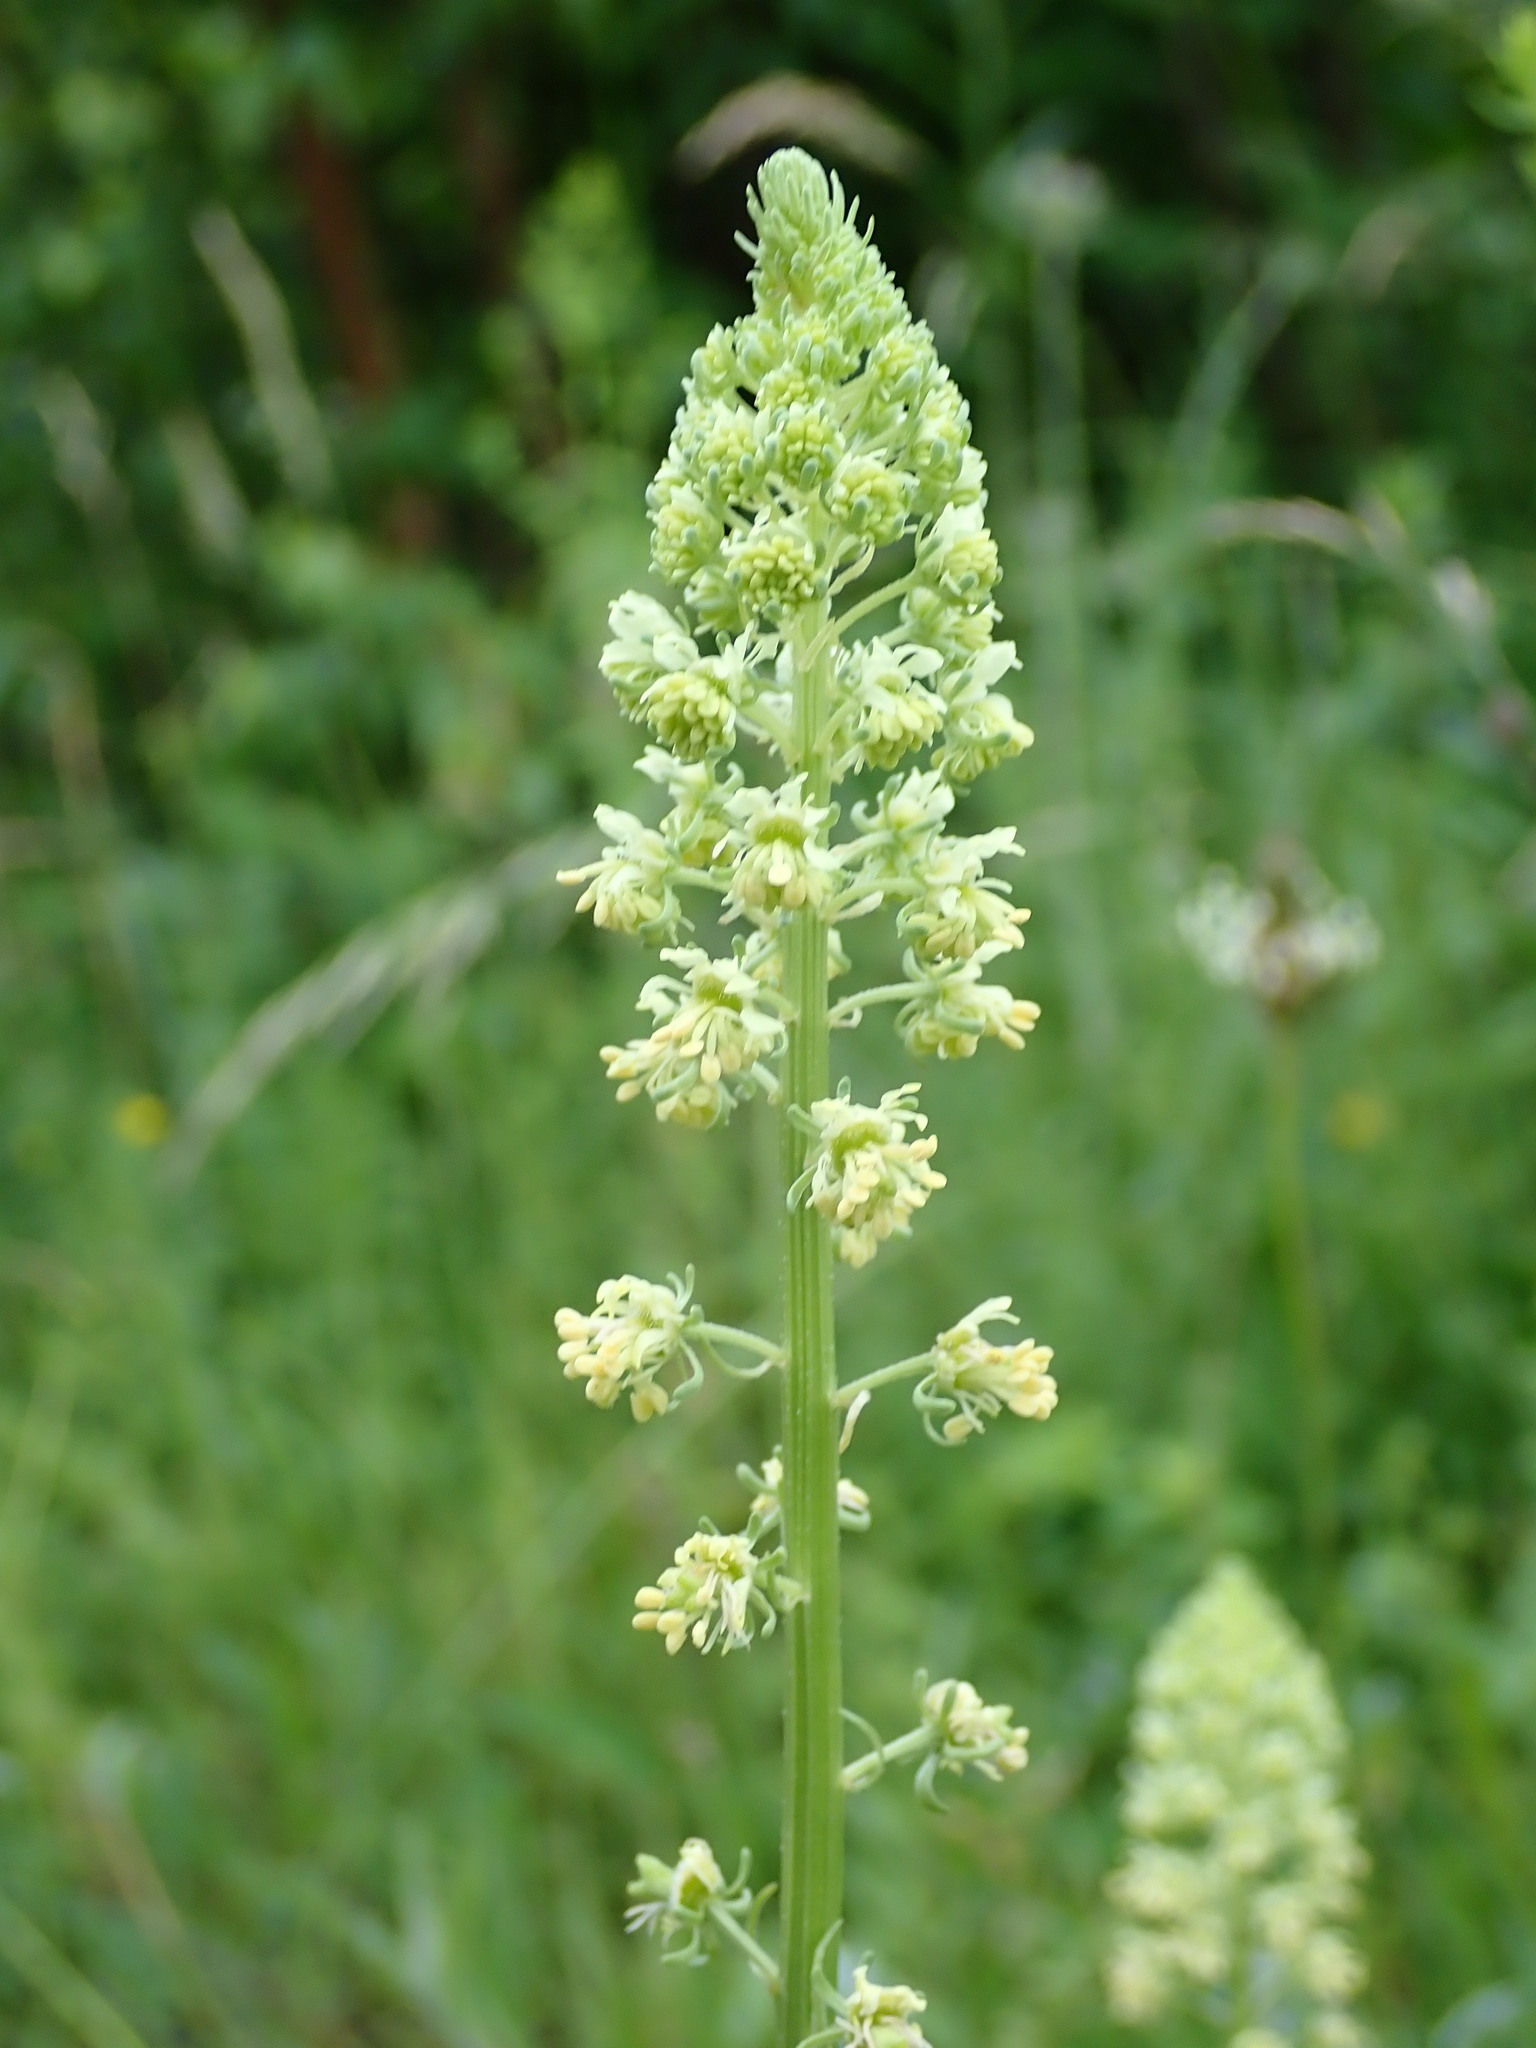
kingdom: Plantae
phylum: Tracheophyta
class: Magnoliopsida
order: Brassicales
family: Resedaceae
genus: Reseda
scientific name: Reseda lutea
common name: Wild mignonette
